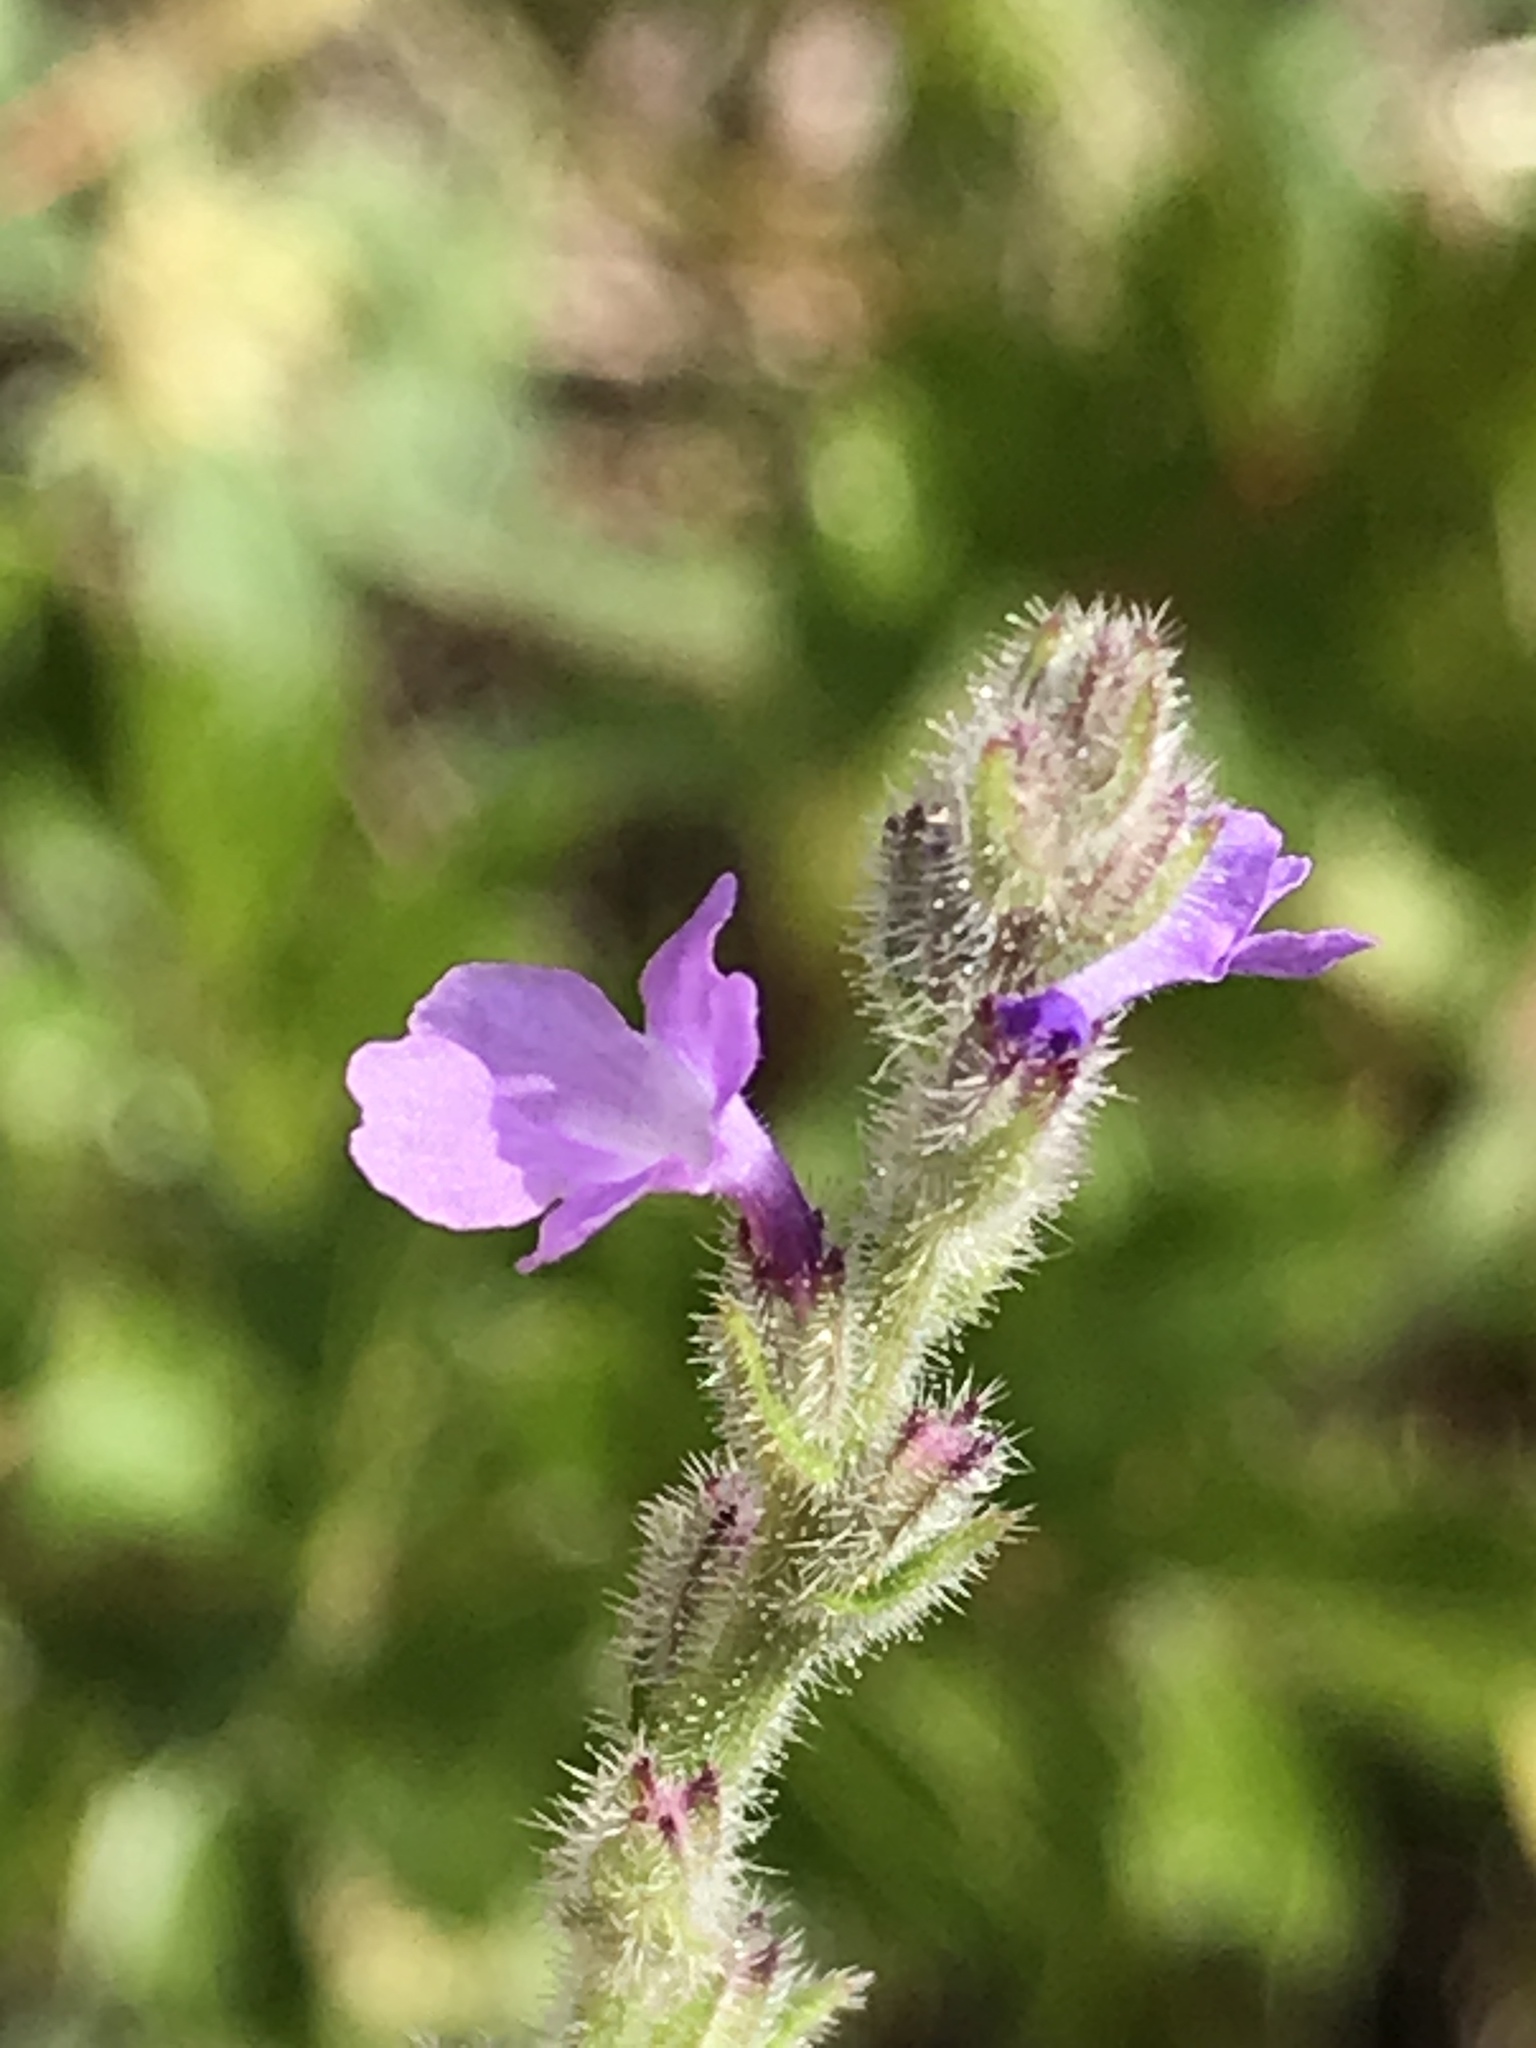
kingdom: Plantae
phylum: Tracheophyta
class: Magnoliopsida
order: Lamiales
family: Verbenaceae
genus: Verbena
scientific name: Verbena canescens
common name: Gray vervain
